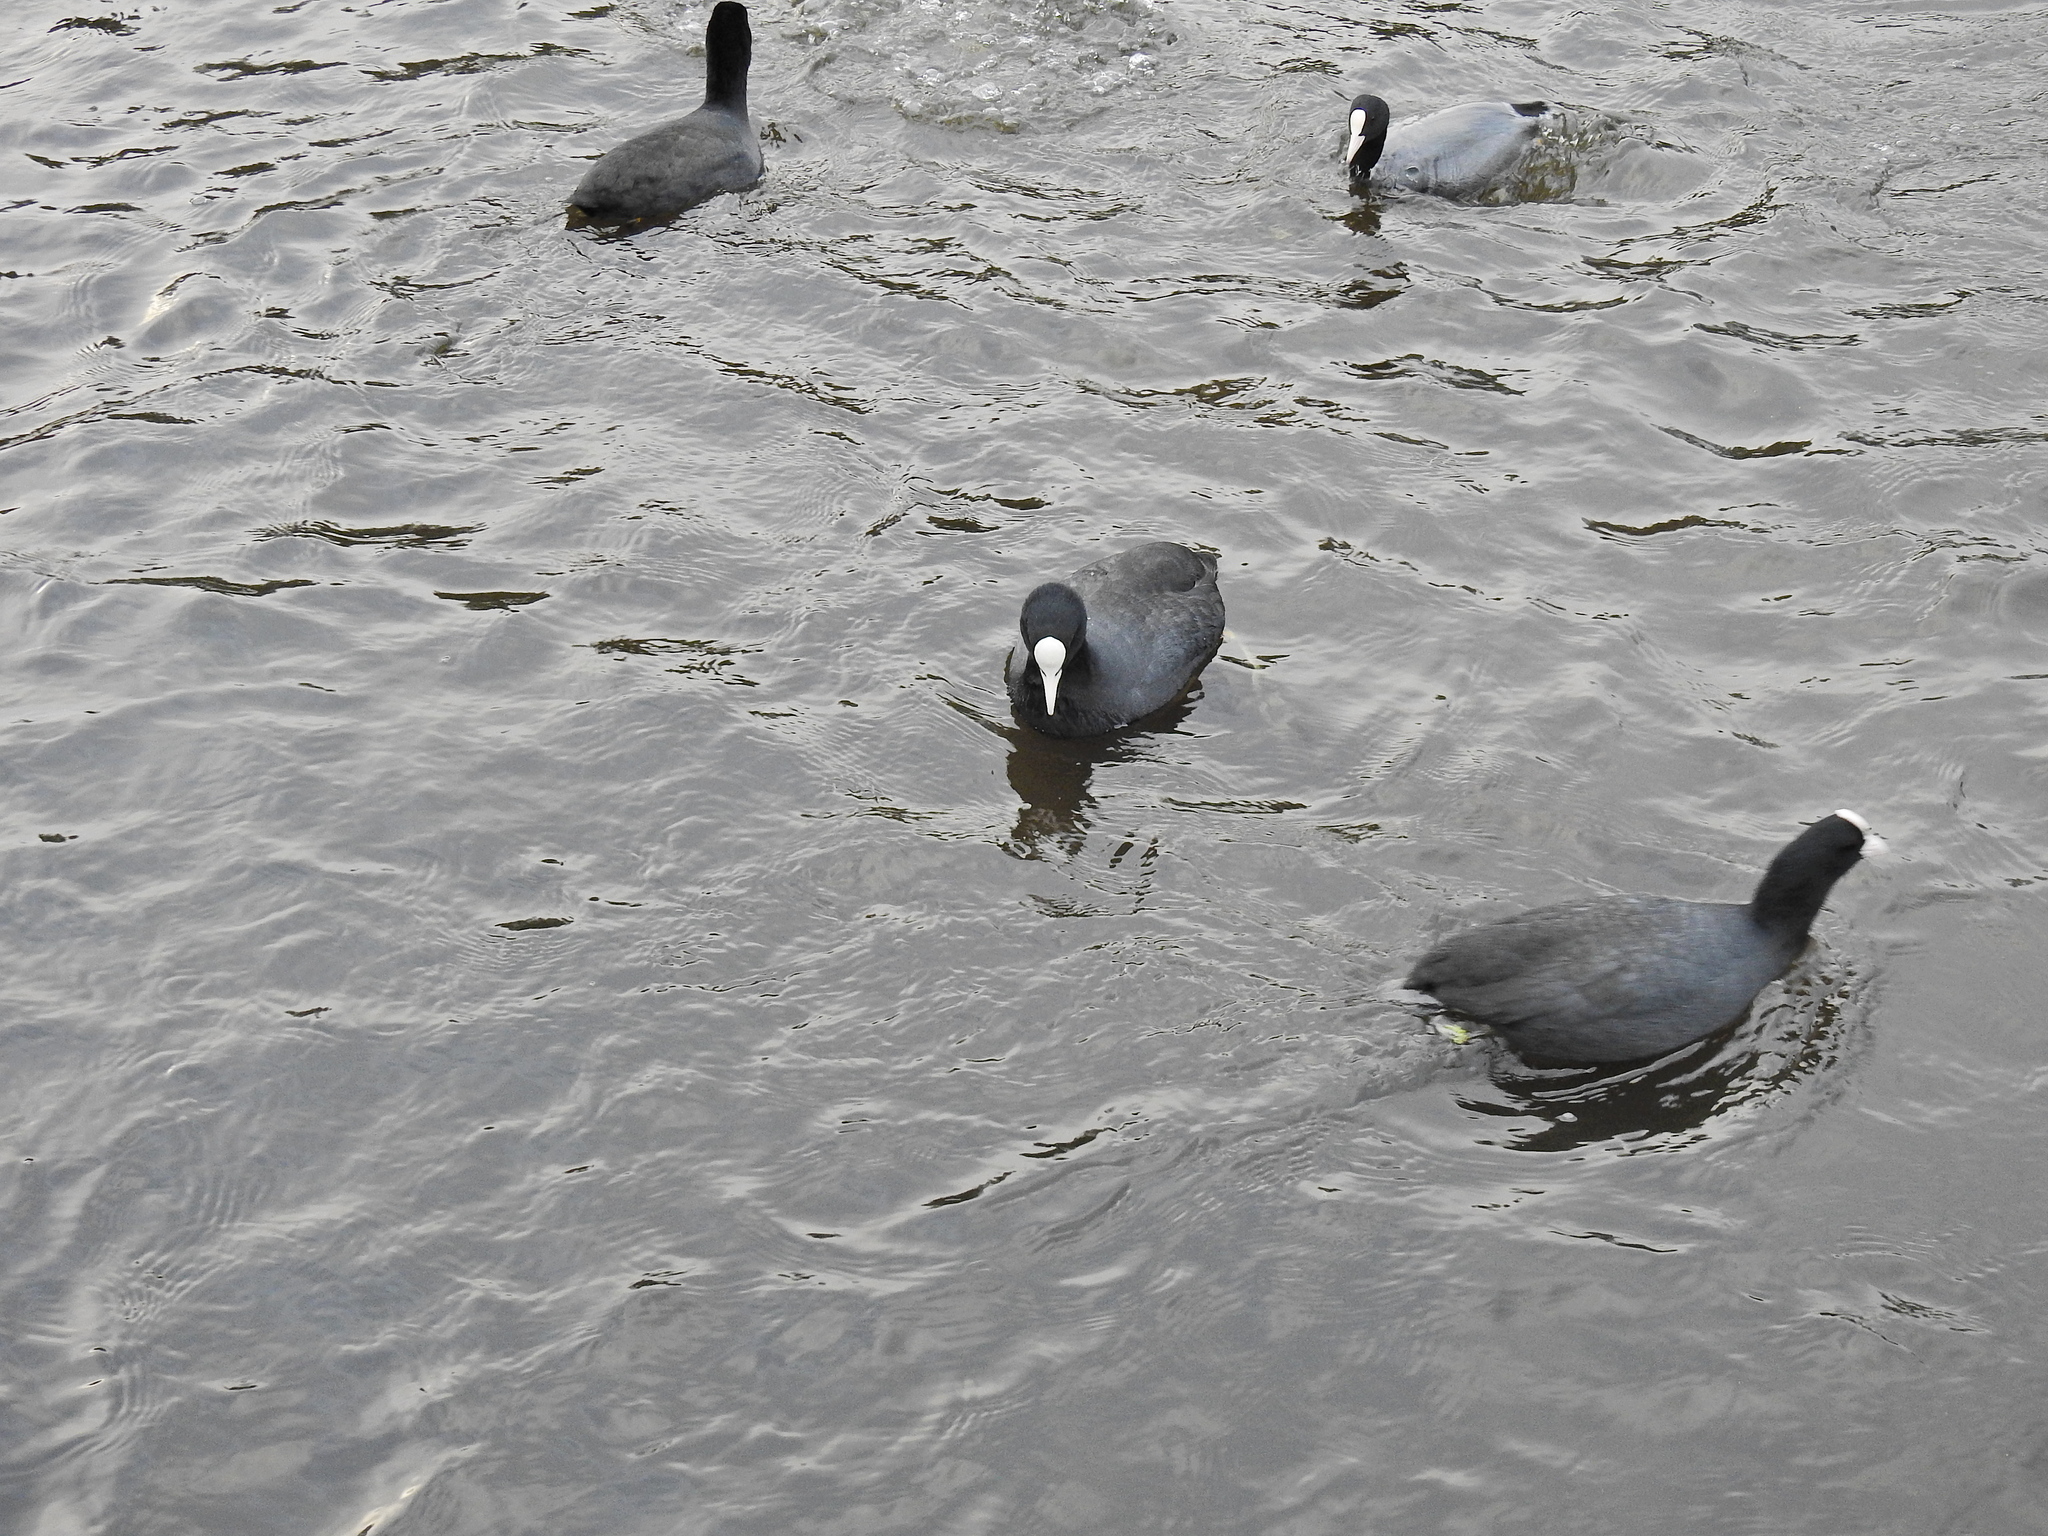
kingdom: Animalia
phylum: Chordata
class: Aves
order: Gruiformes
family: Rallidae
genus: Fulica
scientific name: Fulica atra
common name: Eurasian coot
